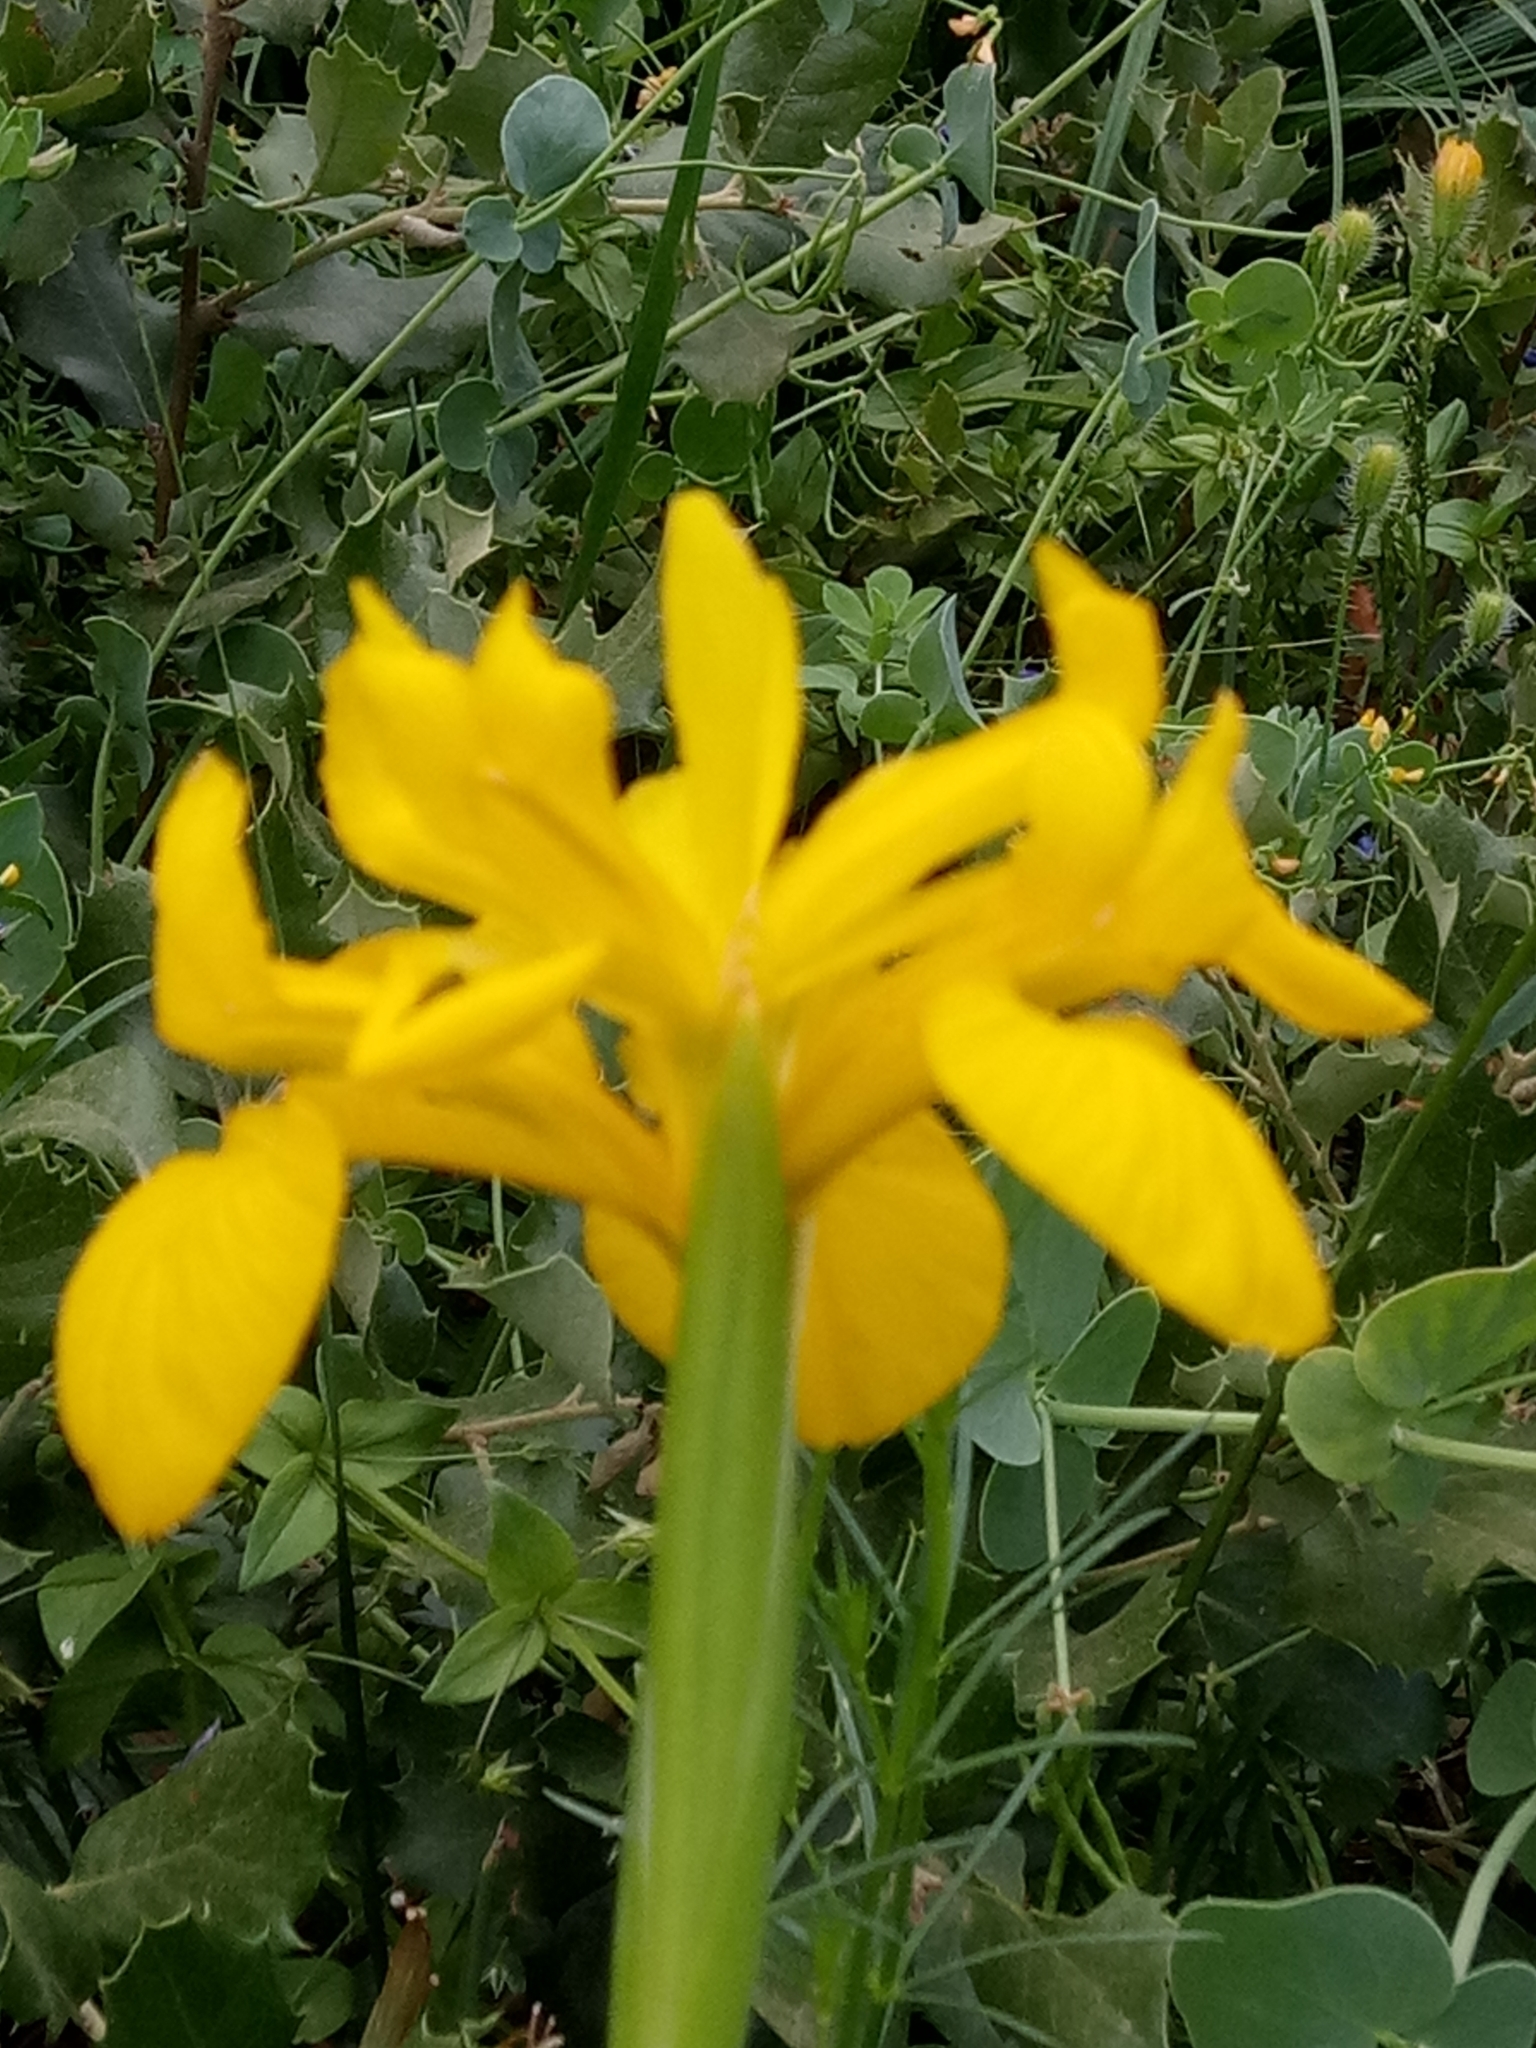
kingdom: Plantae
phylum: Tracheophyta
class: Liliopsida
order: Asparagales
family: Iridaceae
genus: Iris
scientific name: Iris juncea
